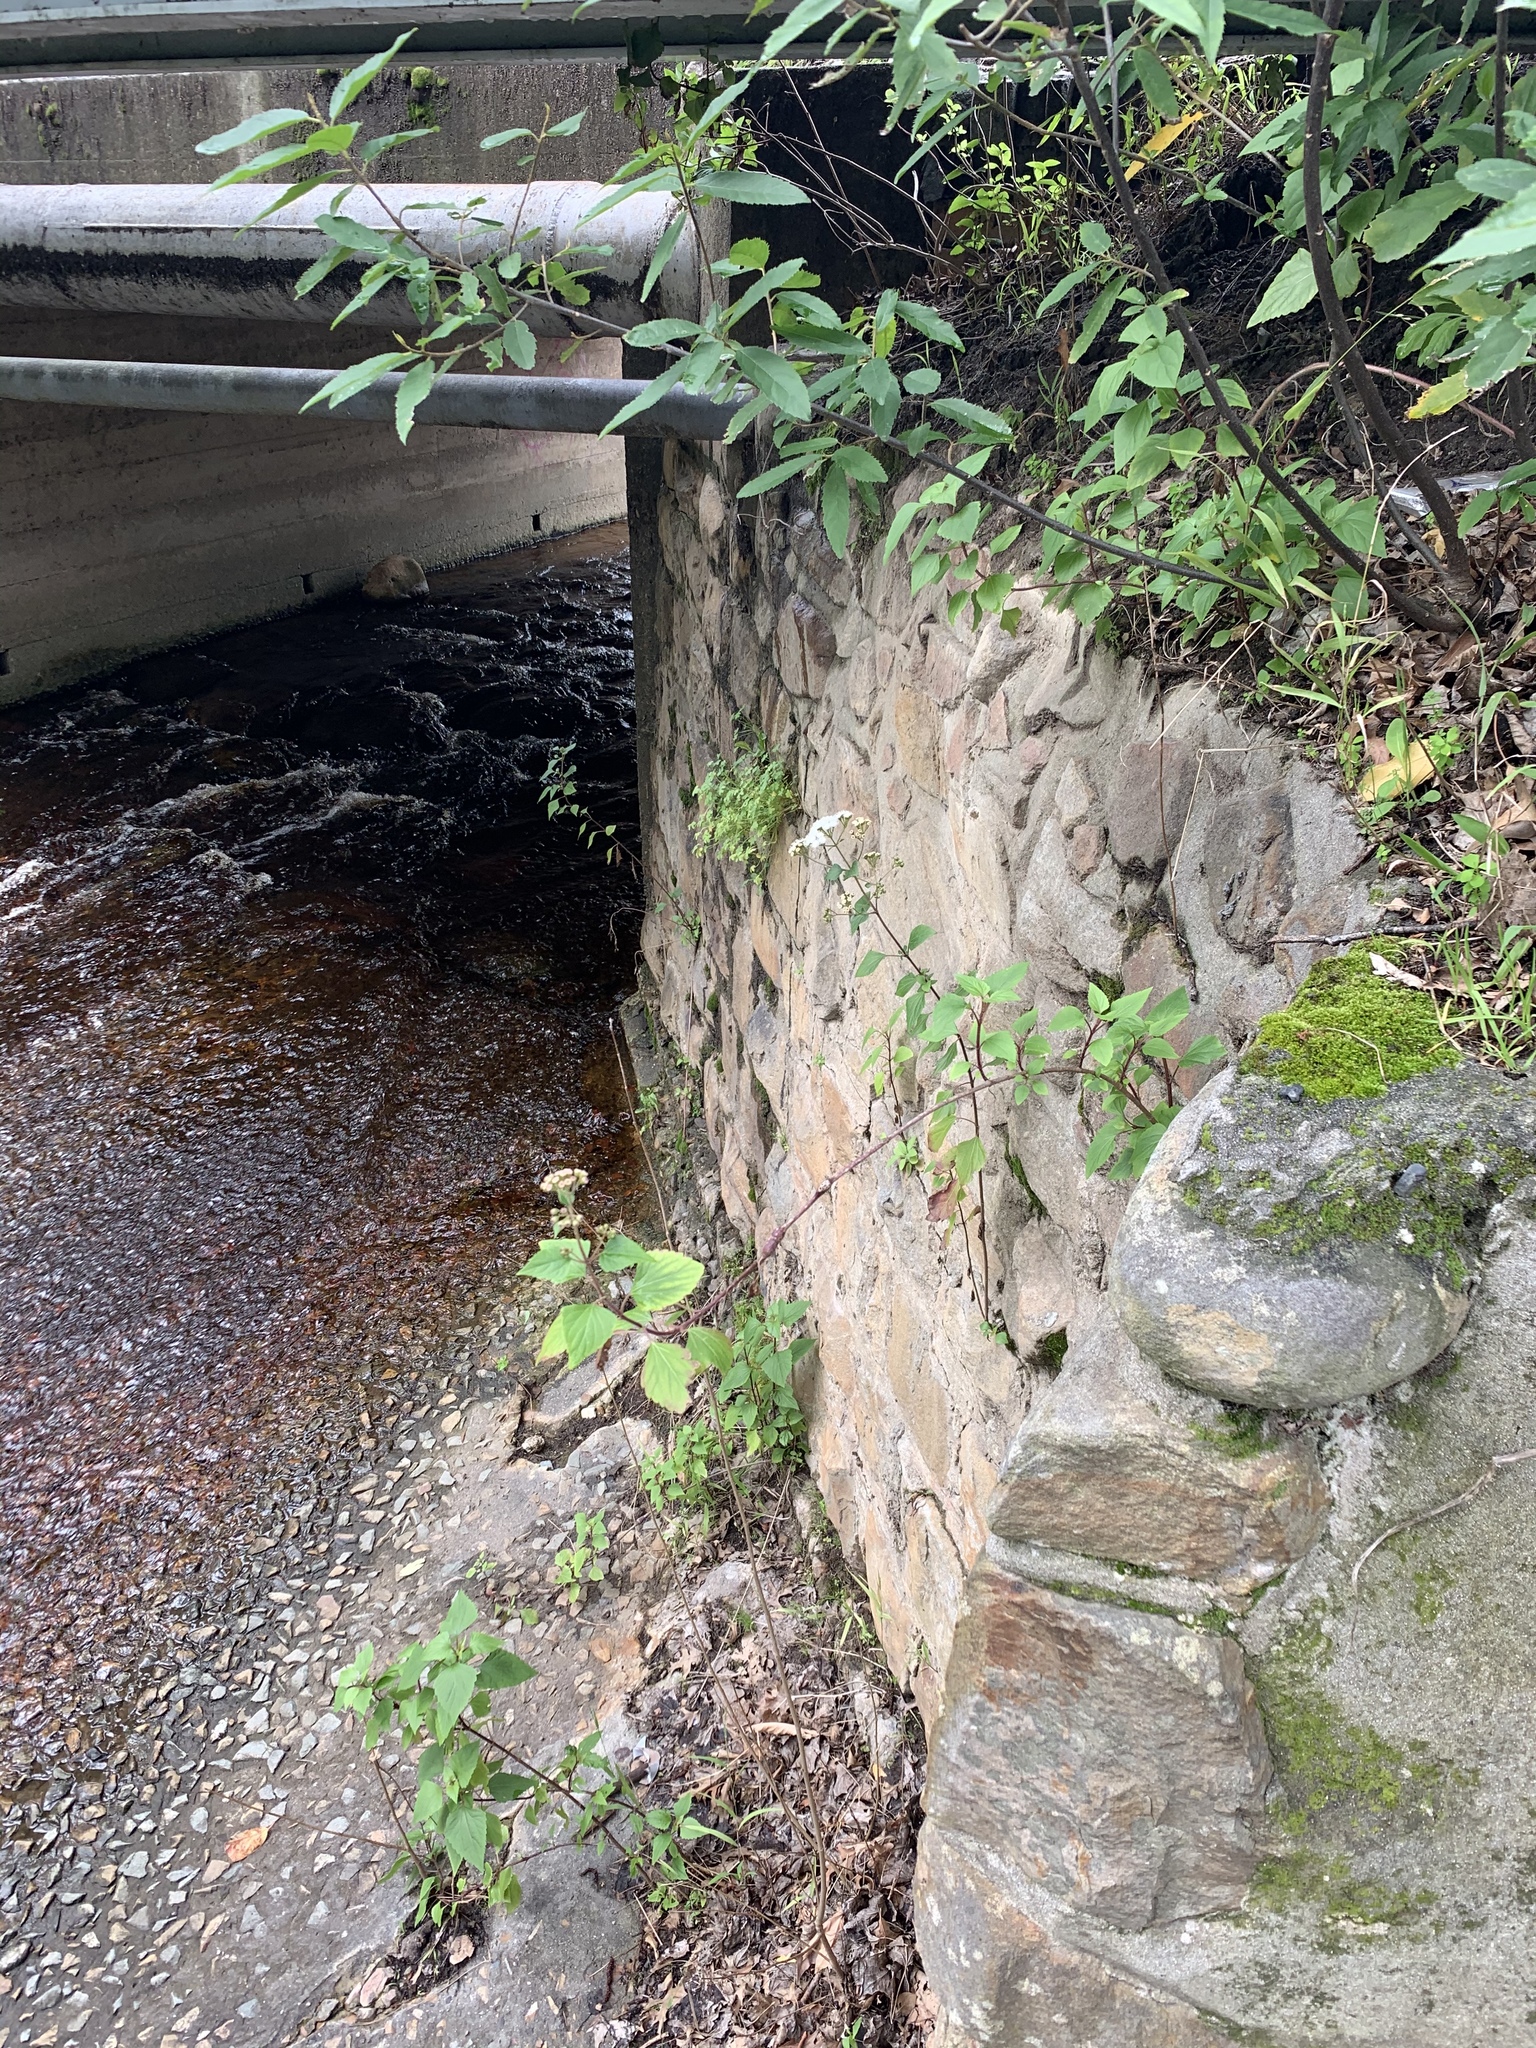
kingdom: Plantae
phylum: Tracheophyta
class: Magnoliopsida
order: Asterales
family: Asteraceae
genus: Ageratina
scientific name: Ageratina adenophora
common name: Sticky snakeroot
